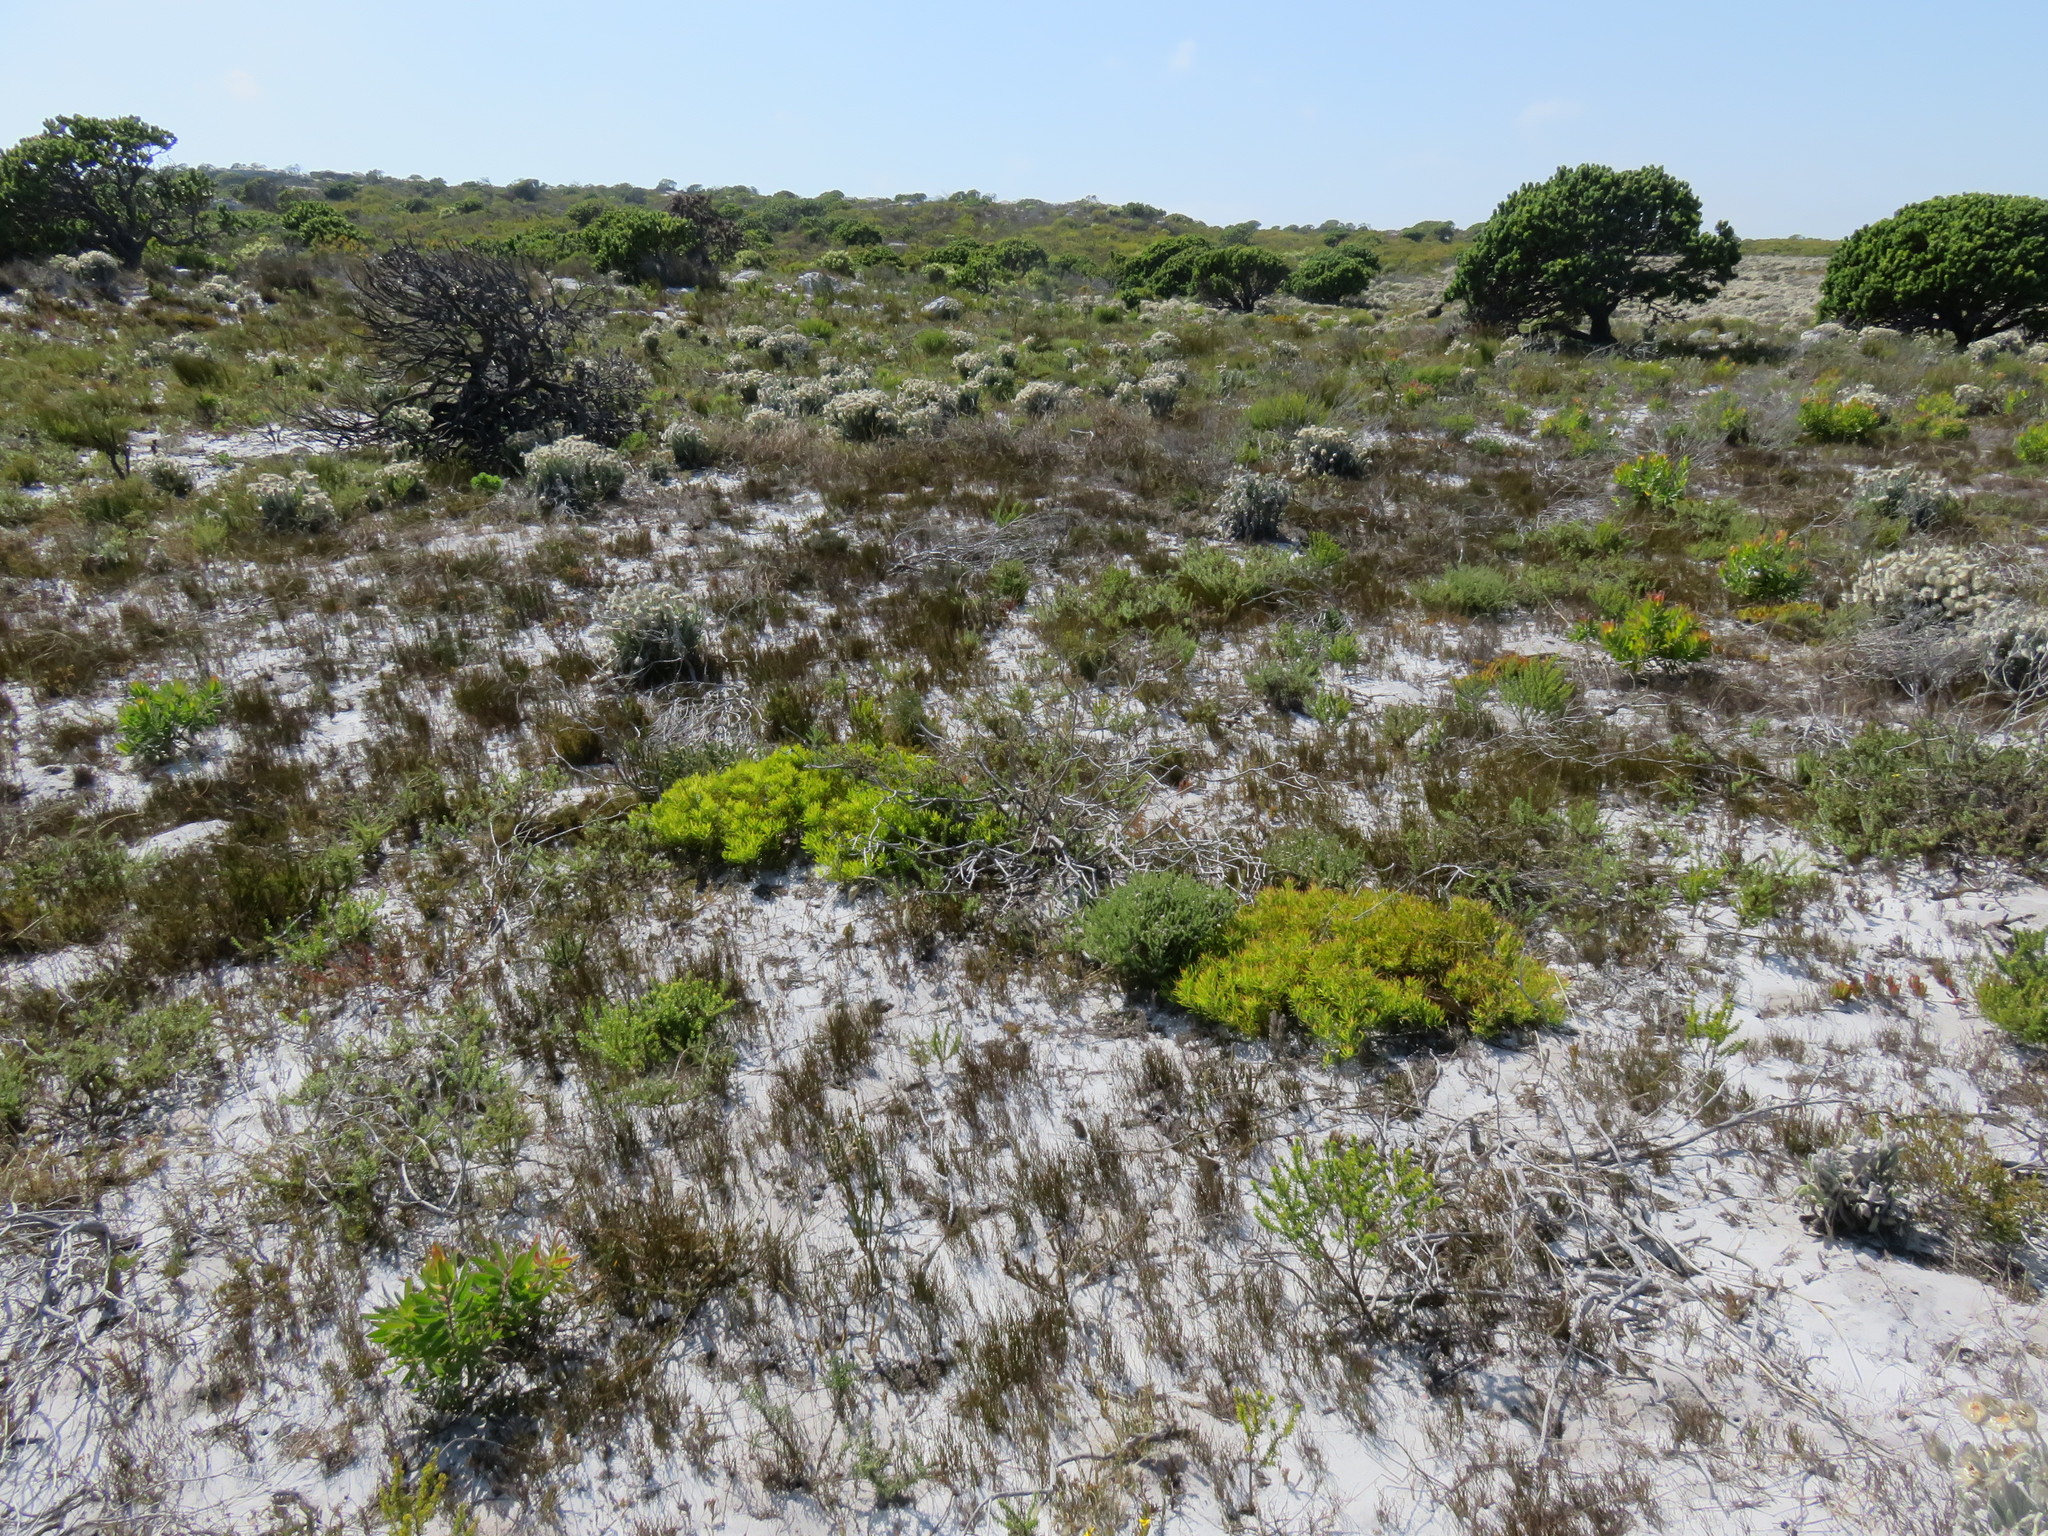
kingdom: Plantae
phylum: Tracheophyta
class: Magnoliopsida
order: Proteales
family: Proteaceae
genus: Leucadendron
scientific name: Leucadendron salignum
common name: Common sunshine conebush
